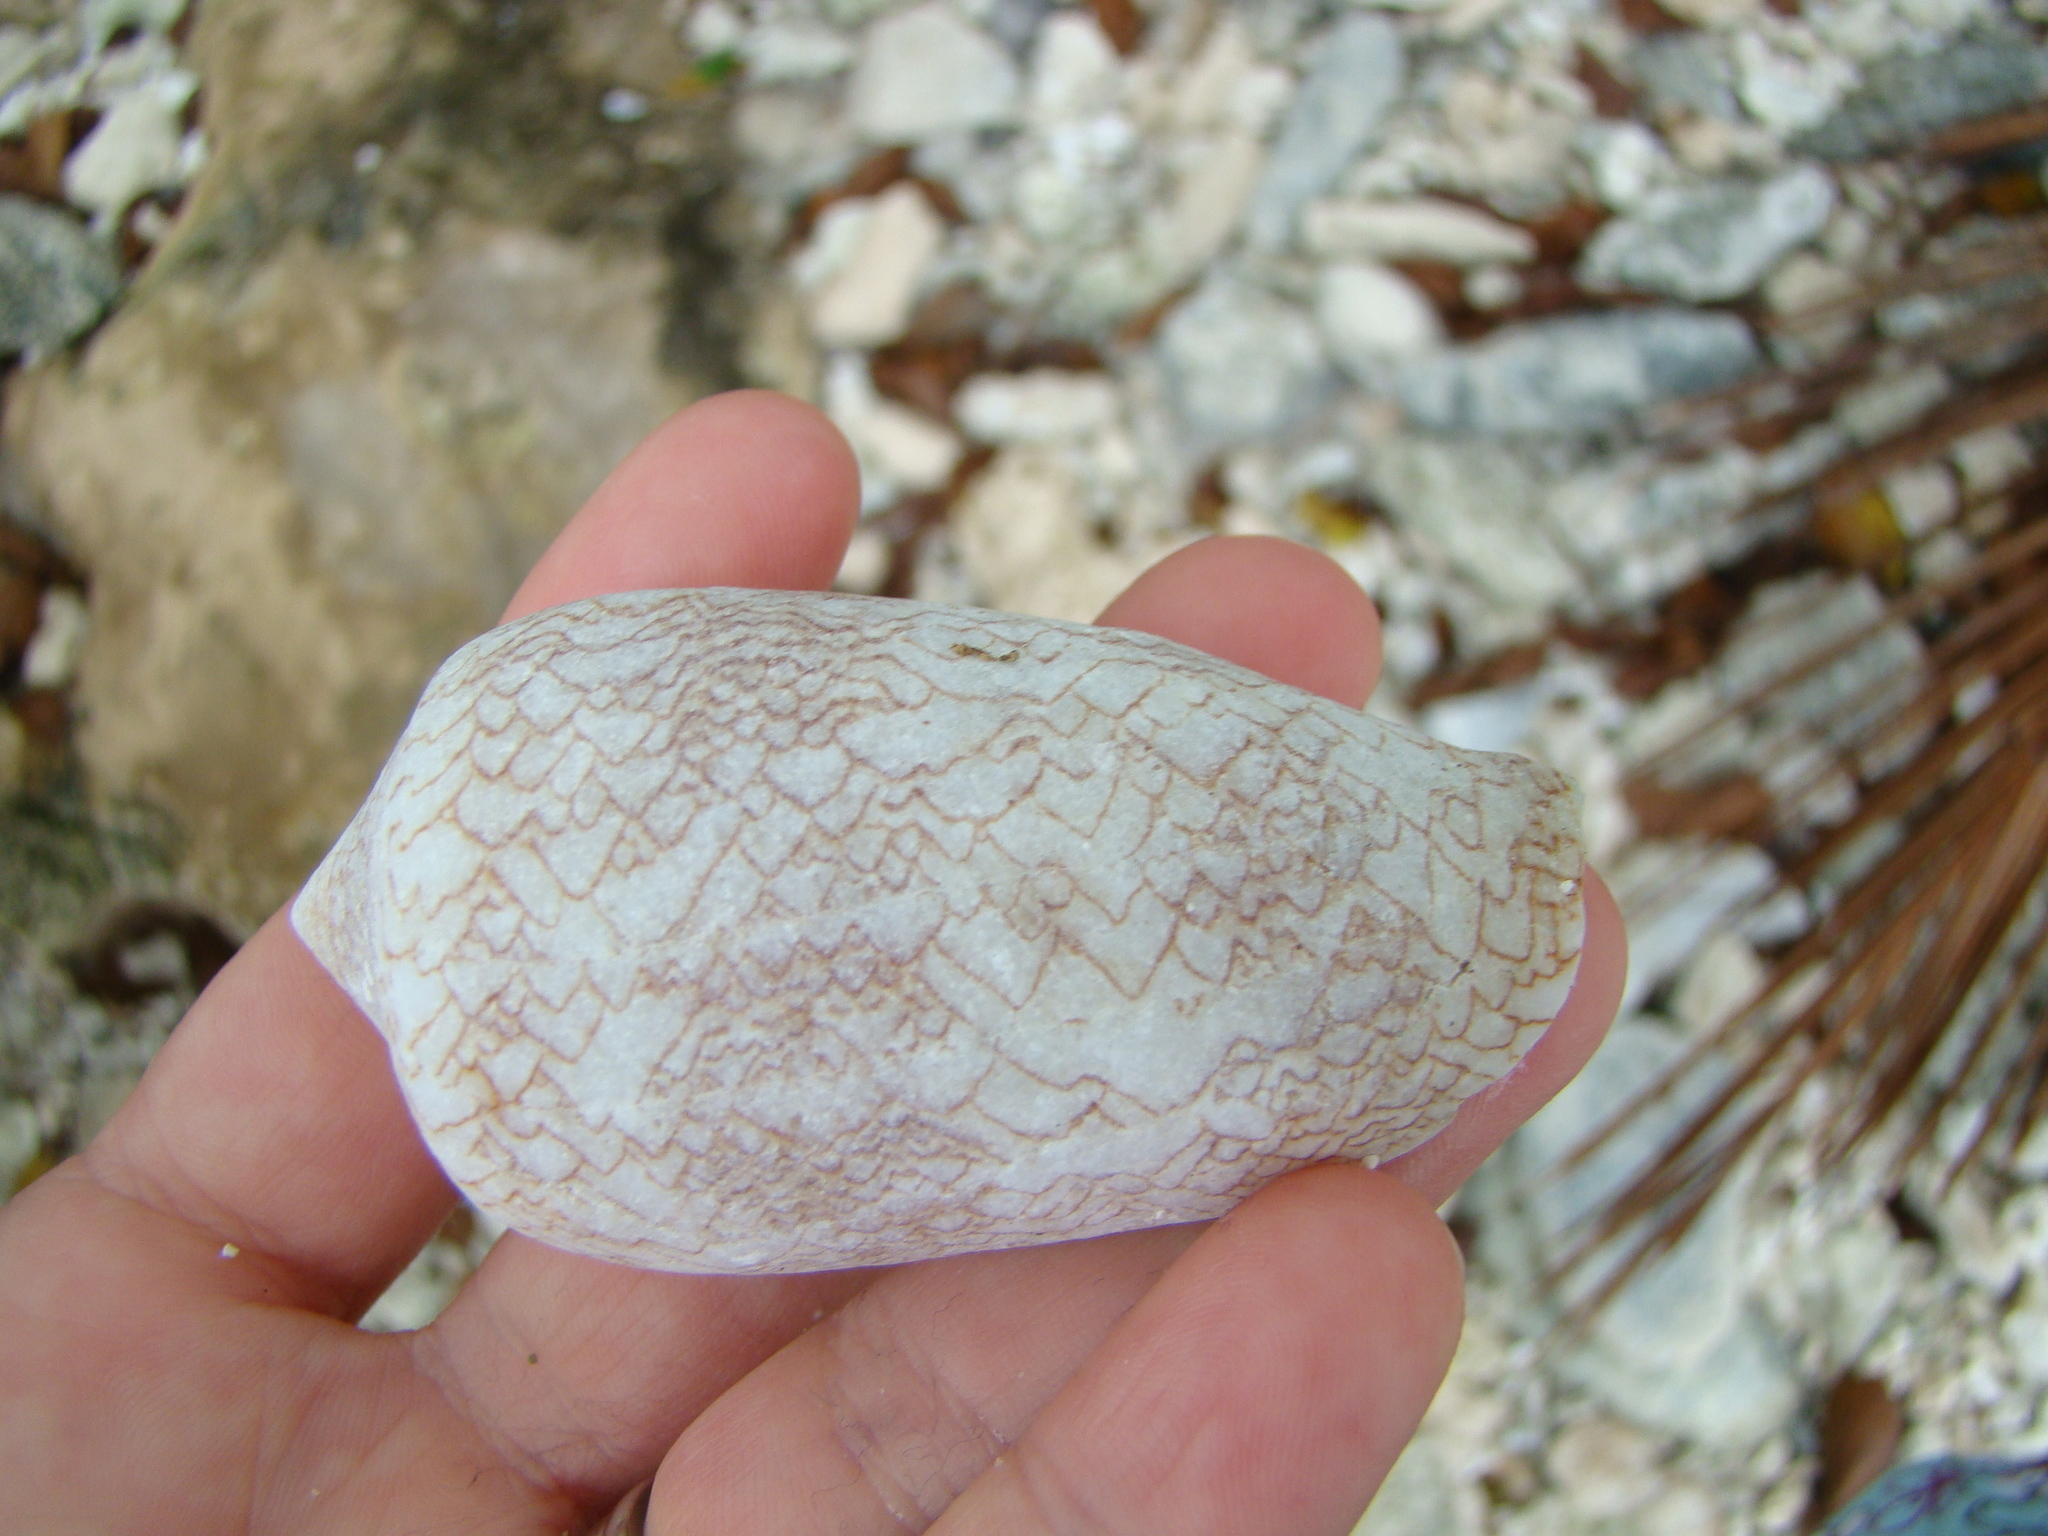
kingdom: Animalia
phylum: Mollusca
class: Gastropoda
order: Neogastropoda
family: Conidae
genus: Conus
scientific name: Conus textile
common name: Cloth-of-gold cone
